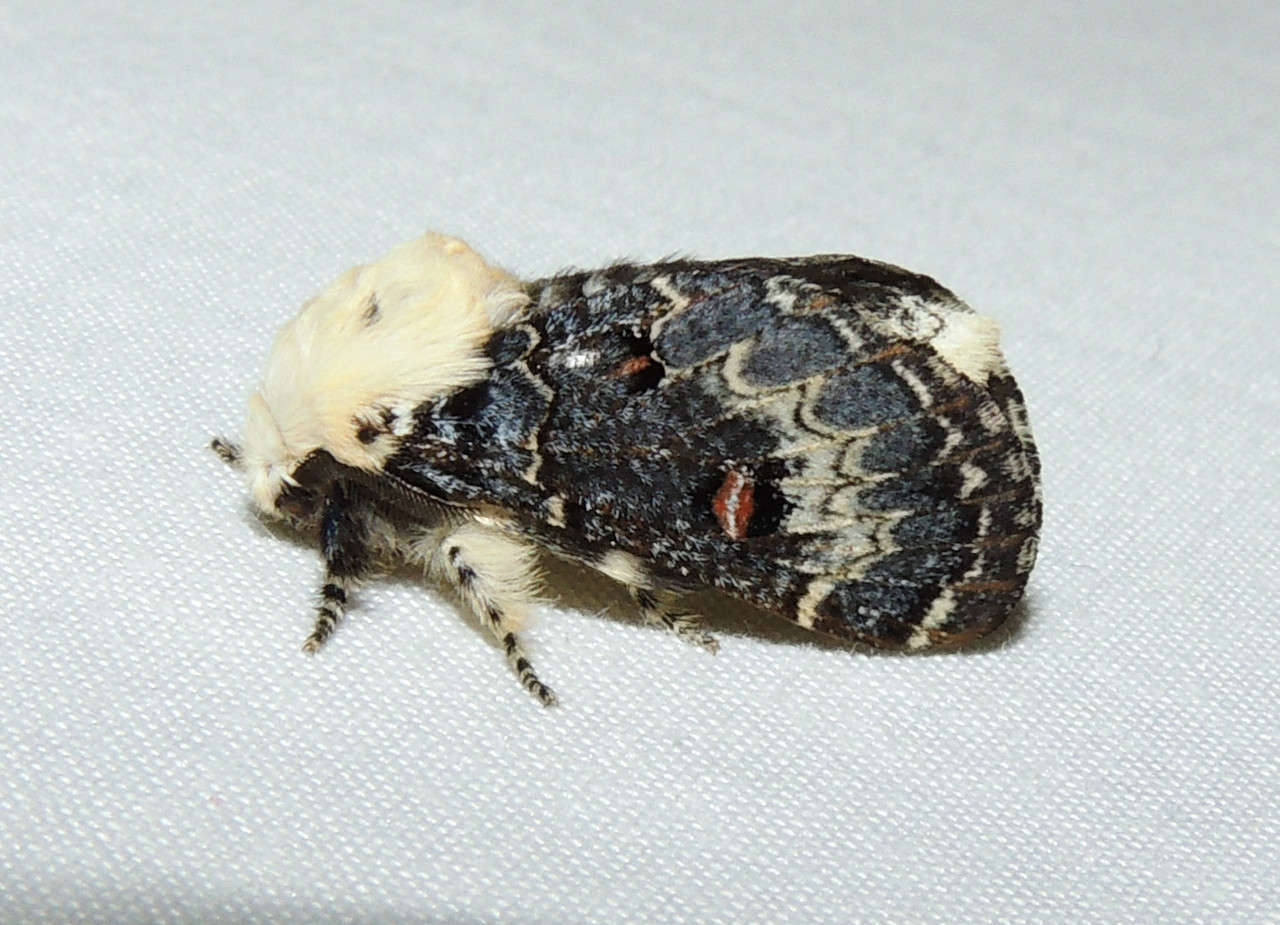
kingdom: Animalia
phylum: Arthropoda
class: Insecta
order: Lepidoptera
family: Lasiocampidae
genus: Genduara
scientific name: Genduara acedesta
